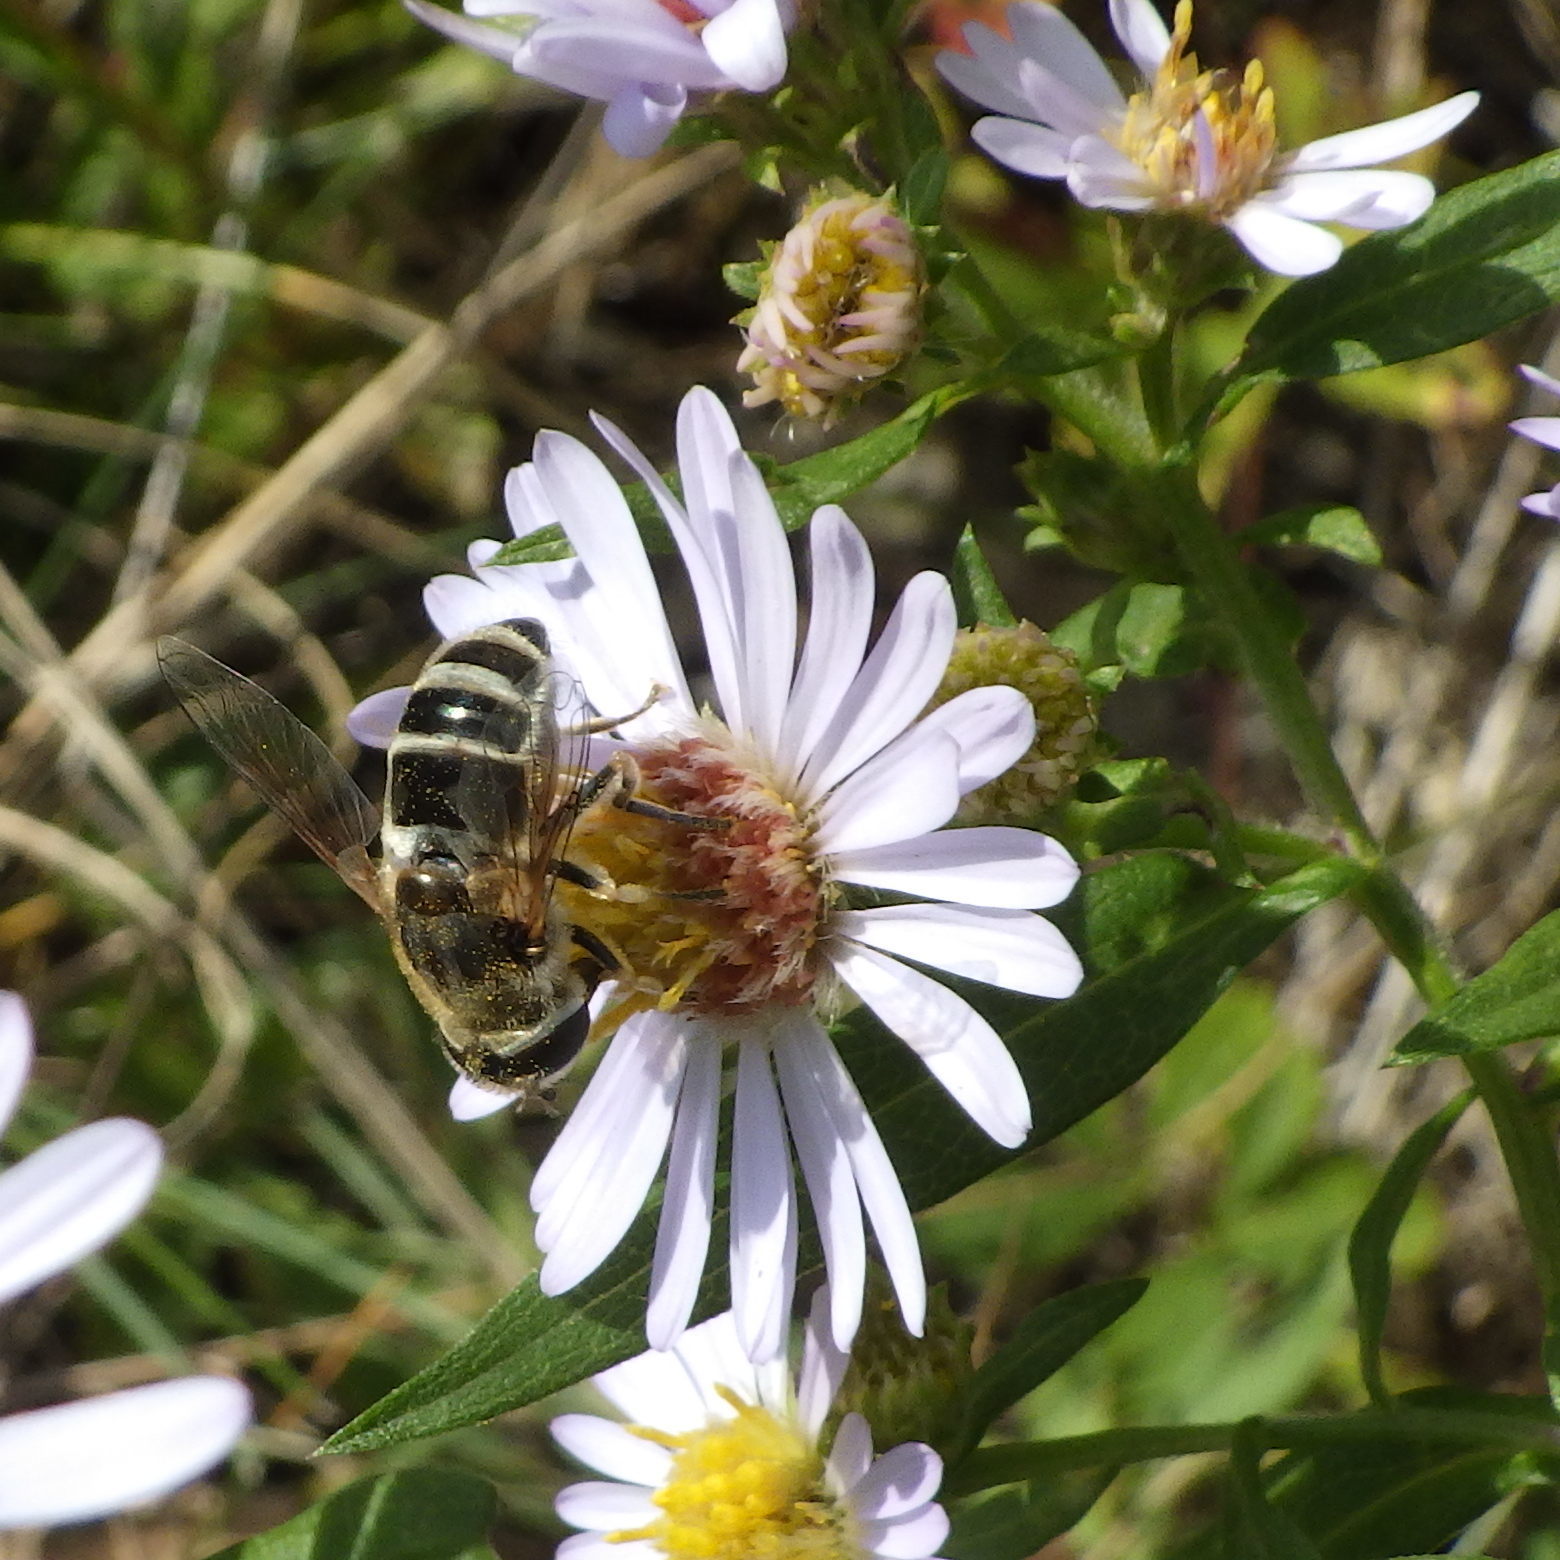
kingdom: Animalia
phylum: Arthropoda
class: Insecta
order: Diptera
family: Syrphidae
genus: Eristalis
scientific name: Eristalis arbustorum
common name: Hover fly
